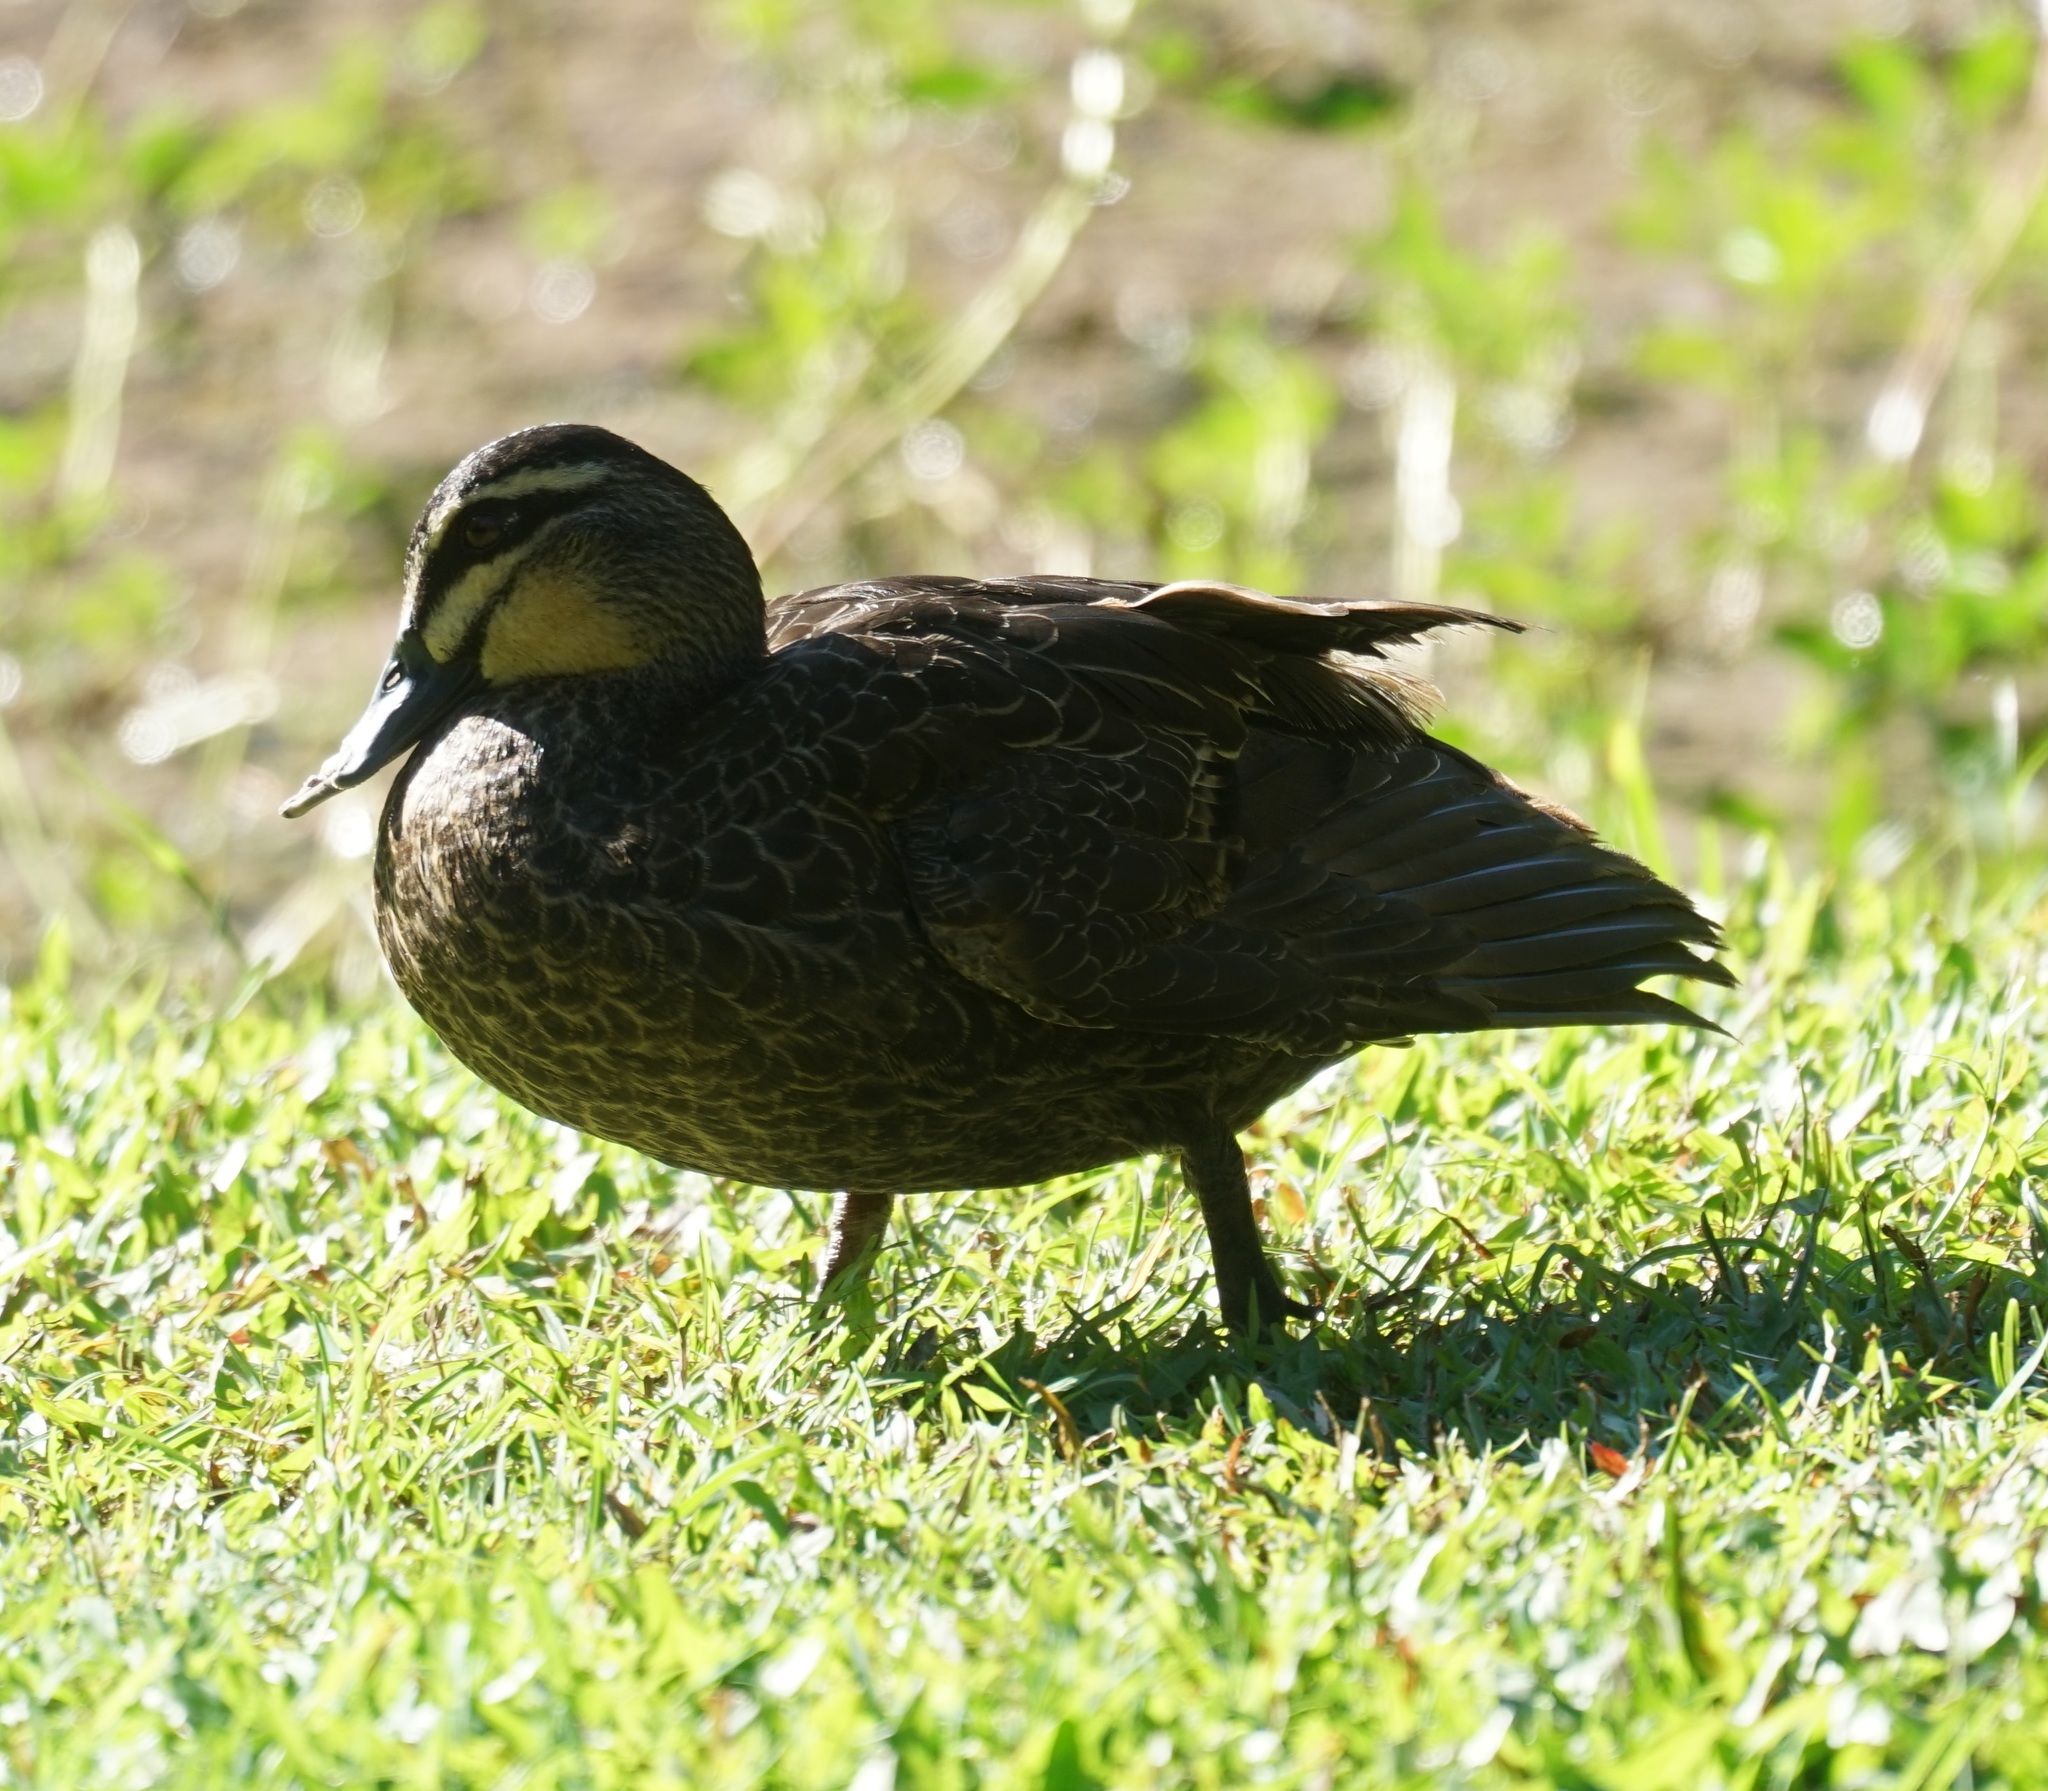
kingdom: Animalia
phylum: Chordata
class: Aves
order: Anseriformes
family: Anatidae
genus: Anas
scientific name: Anas superciliosa
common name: Pacific black duck
